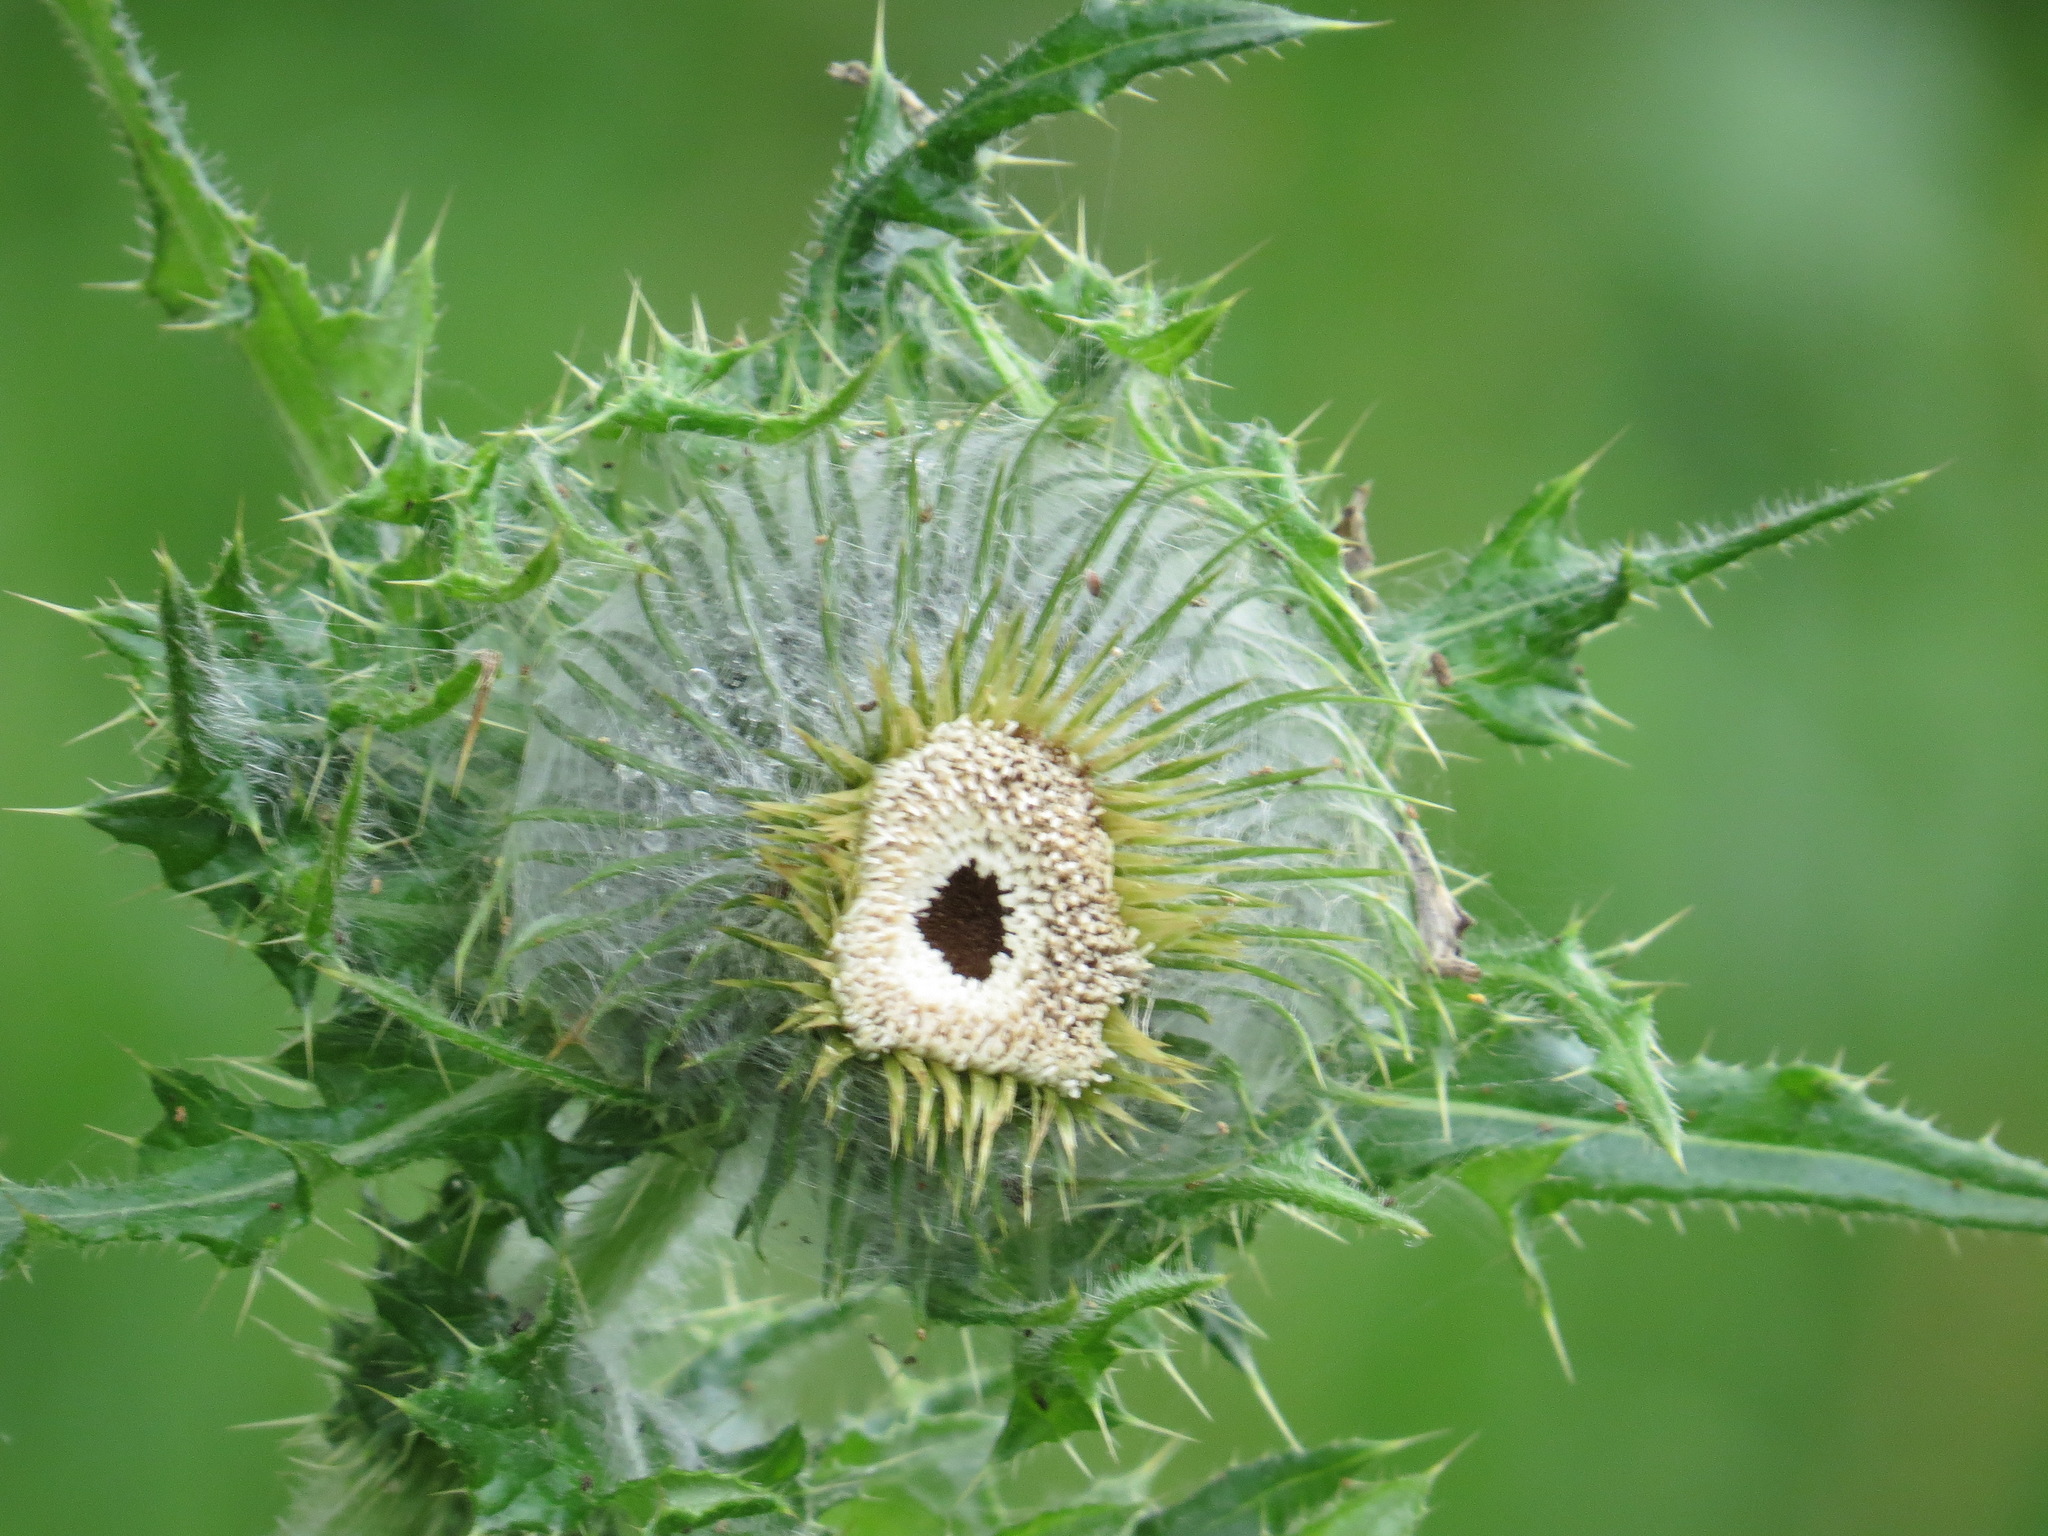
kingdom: Plantae
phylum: Tracheophyta
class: Magnoliopsida
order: Asterales
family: Asteraceae
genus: Cirsium
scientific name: Cirsium brevistylum
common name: Indian thistle
